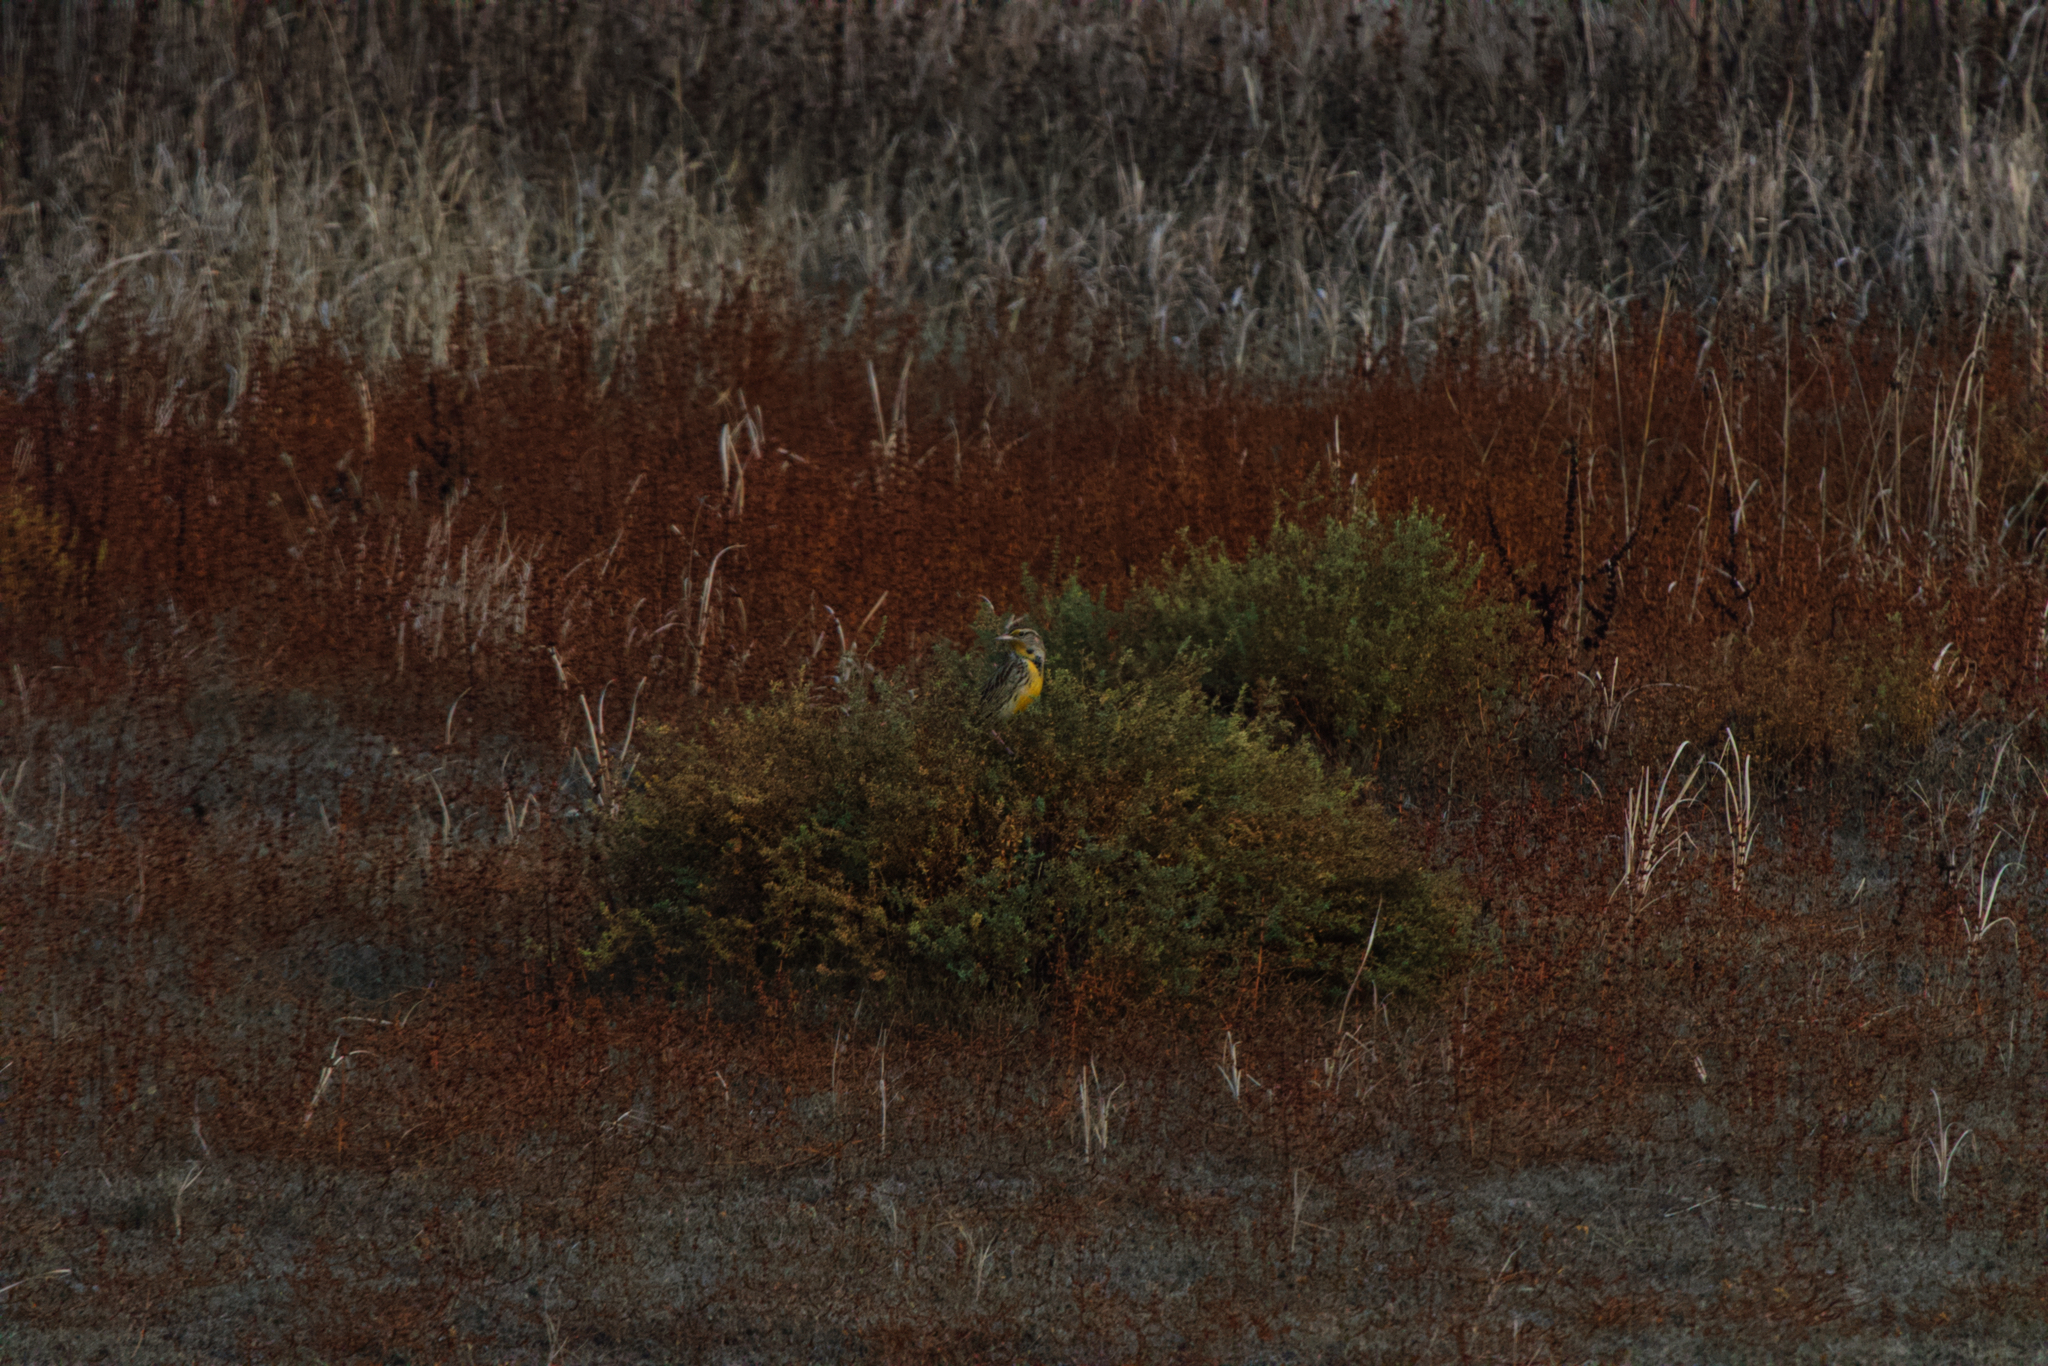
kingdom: Animalia
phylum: Chordata
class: Aves
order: Passeriformes
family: Icteridae
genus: Sturnella
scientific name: Sturnella neglecta
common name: Western meadowlark
